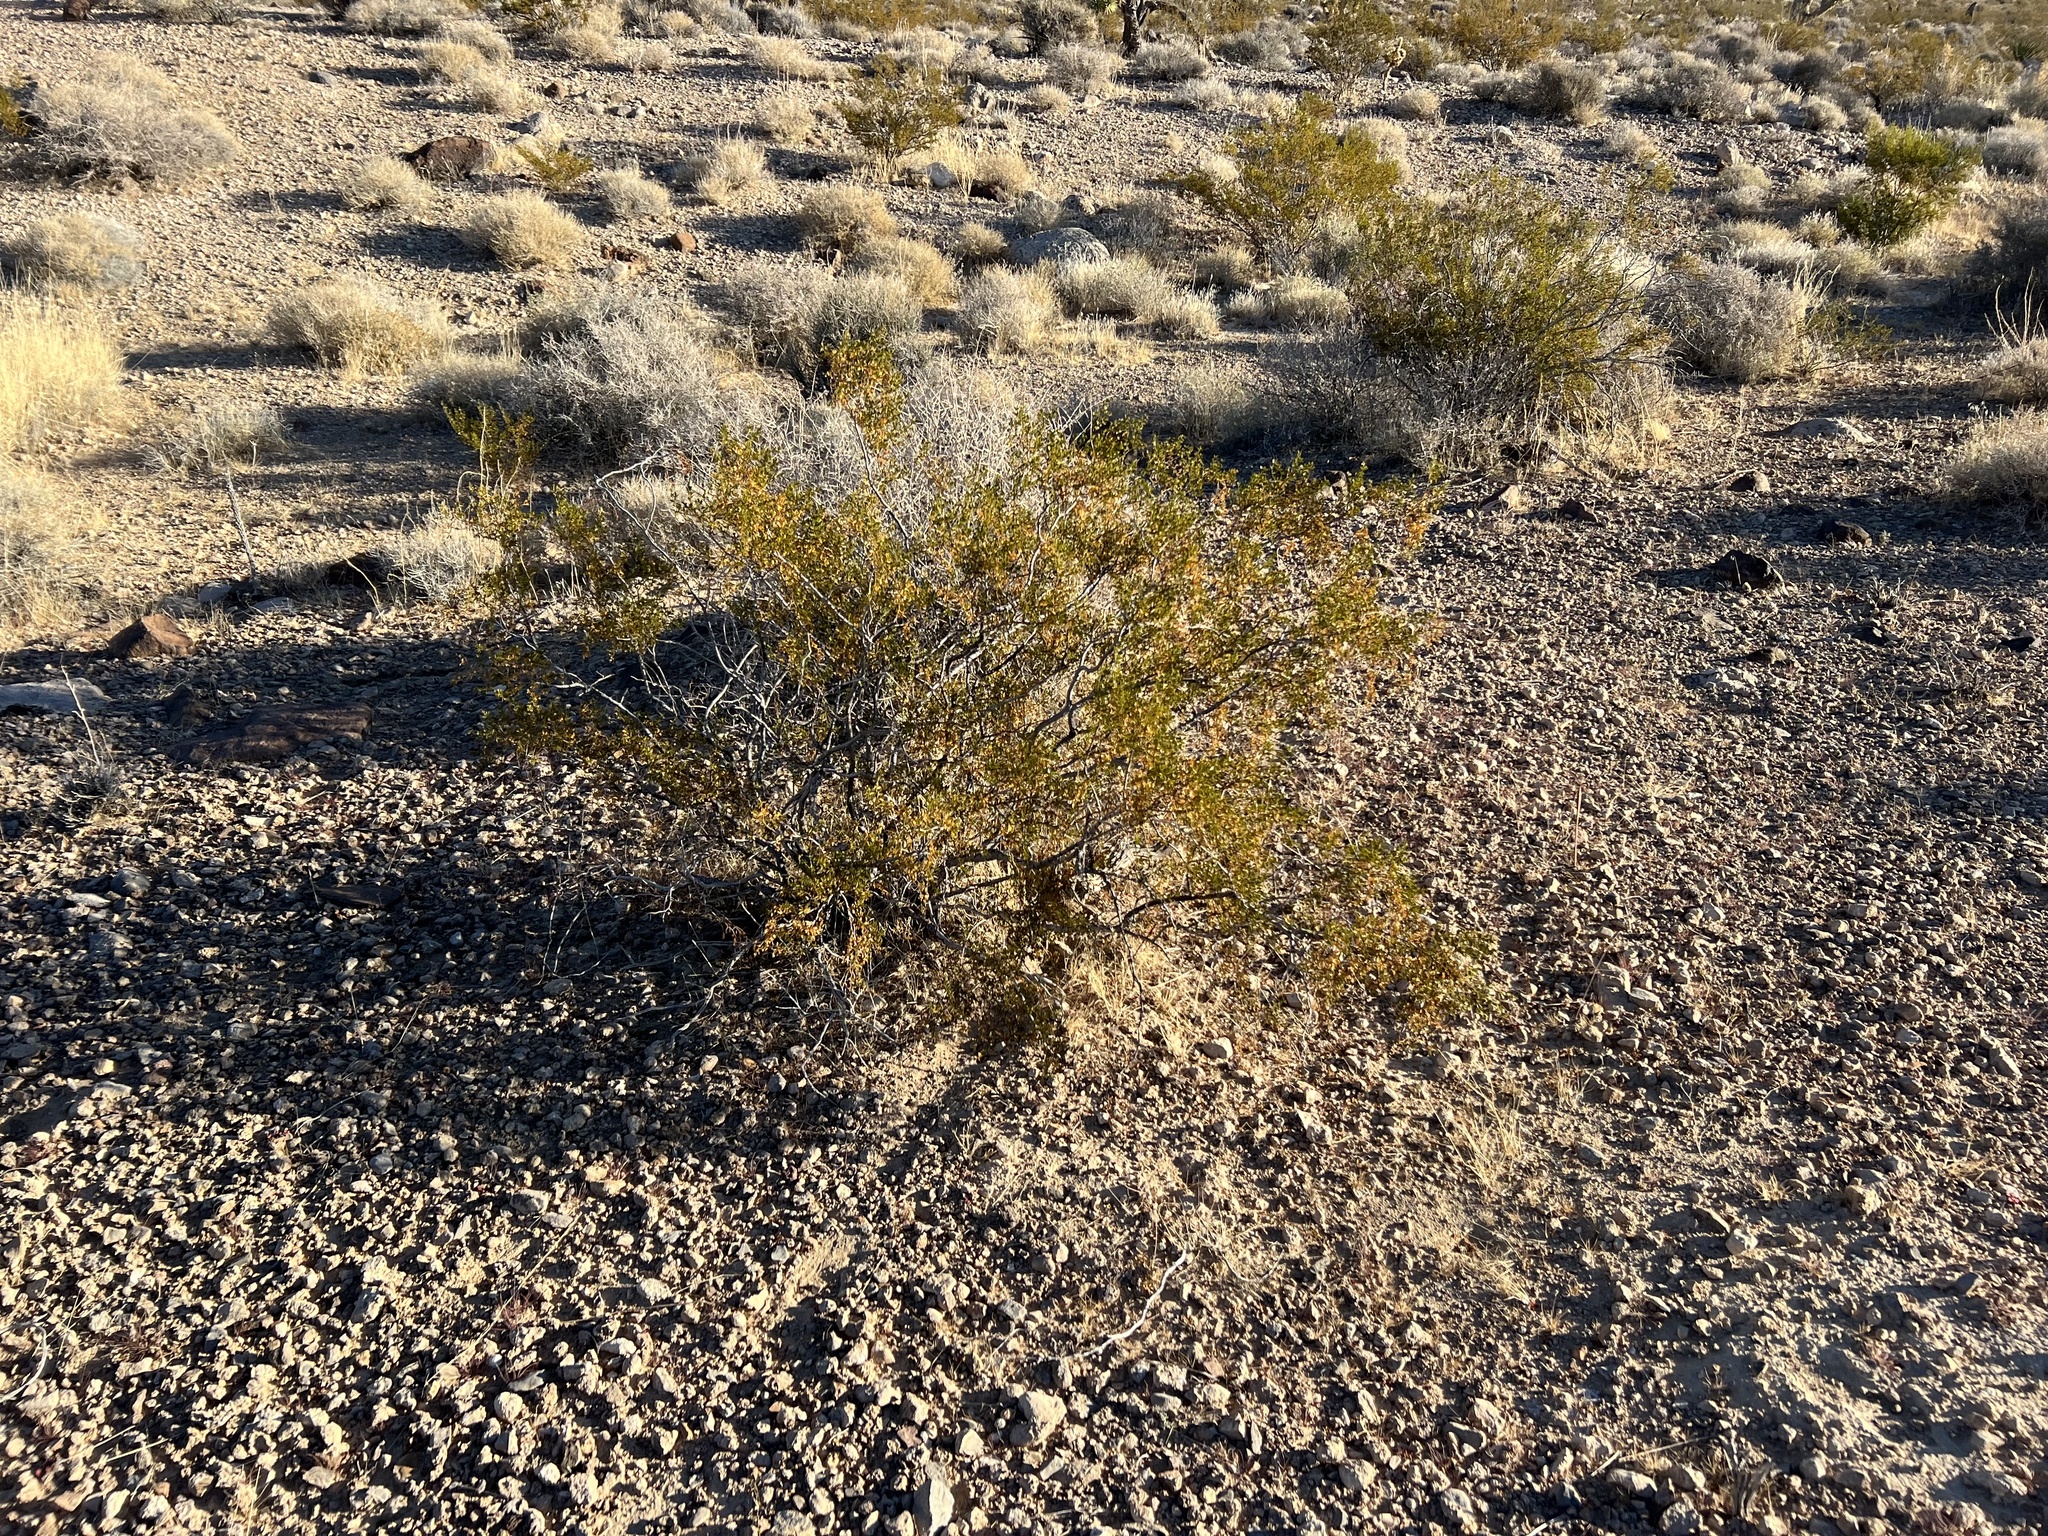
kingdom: Plantae
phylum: Tracheophyta
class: Magnoliopsida
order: Zygophyllales
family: Zygophyllaceae
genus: Larrea
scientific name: Larrea tridentata
